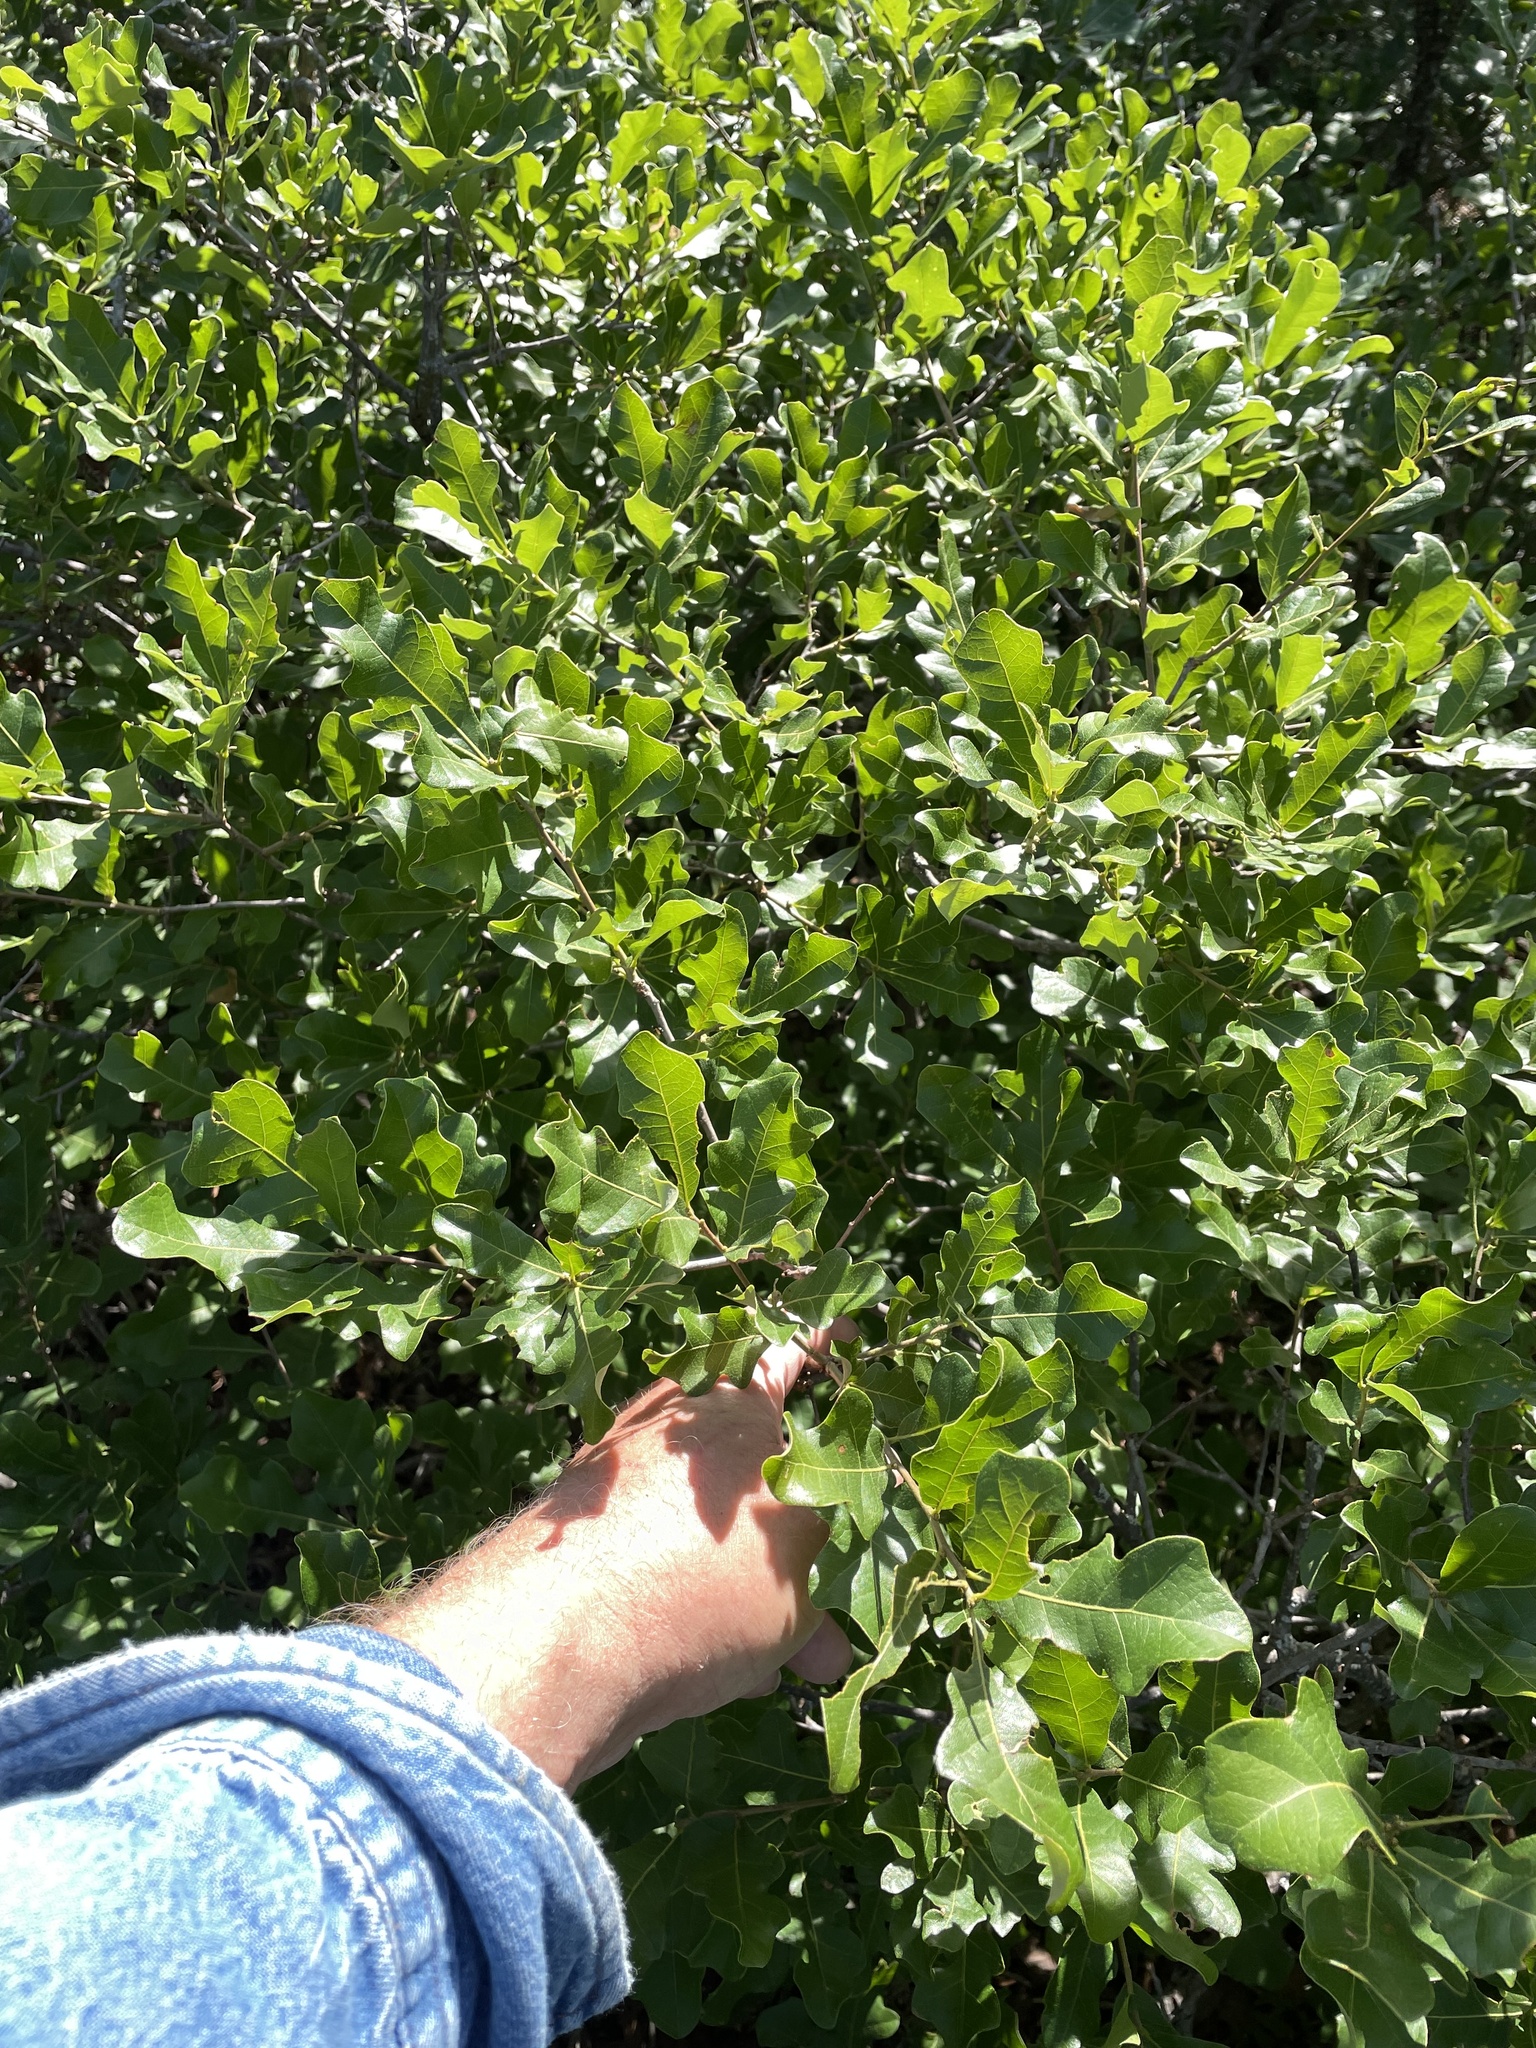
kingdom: Plantae
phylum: Tracheophyta
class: Magnoliopsida
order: Fagales
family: Fagaceae
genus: Quercus
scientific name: Quercus sinuata
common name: Durand oak
